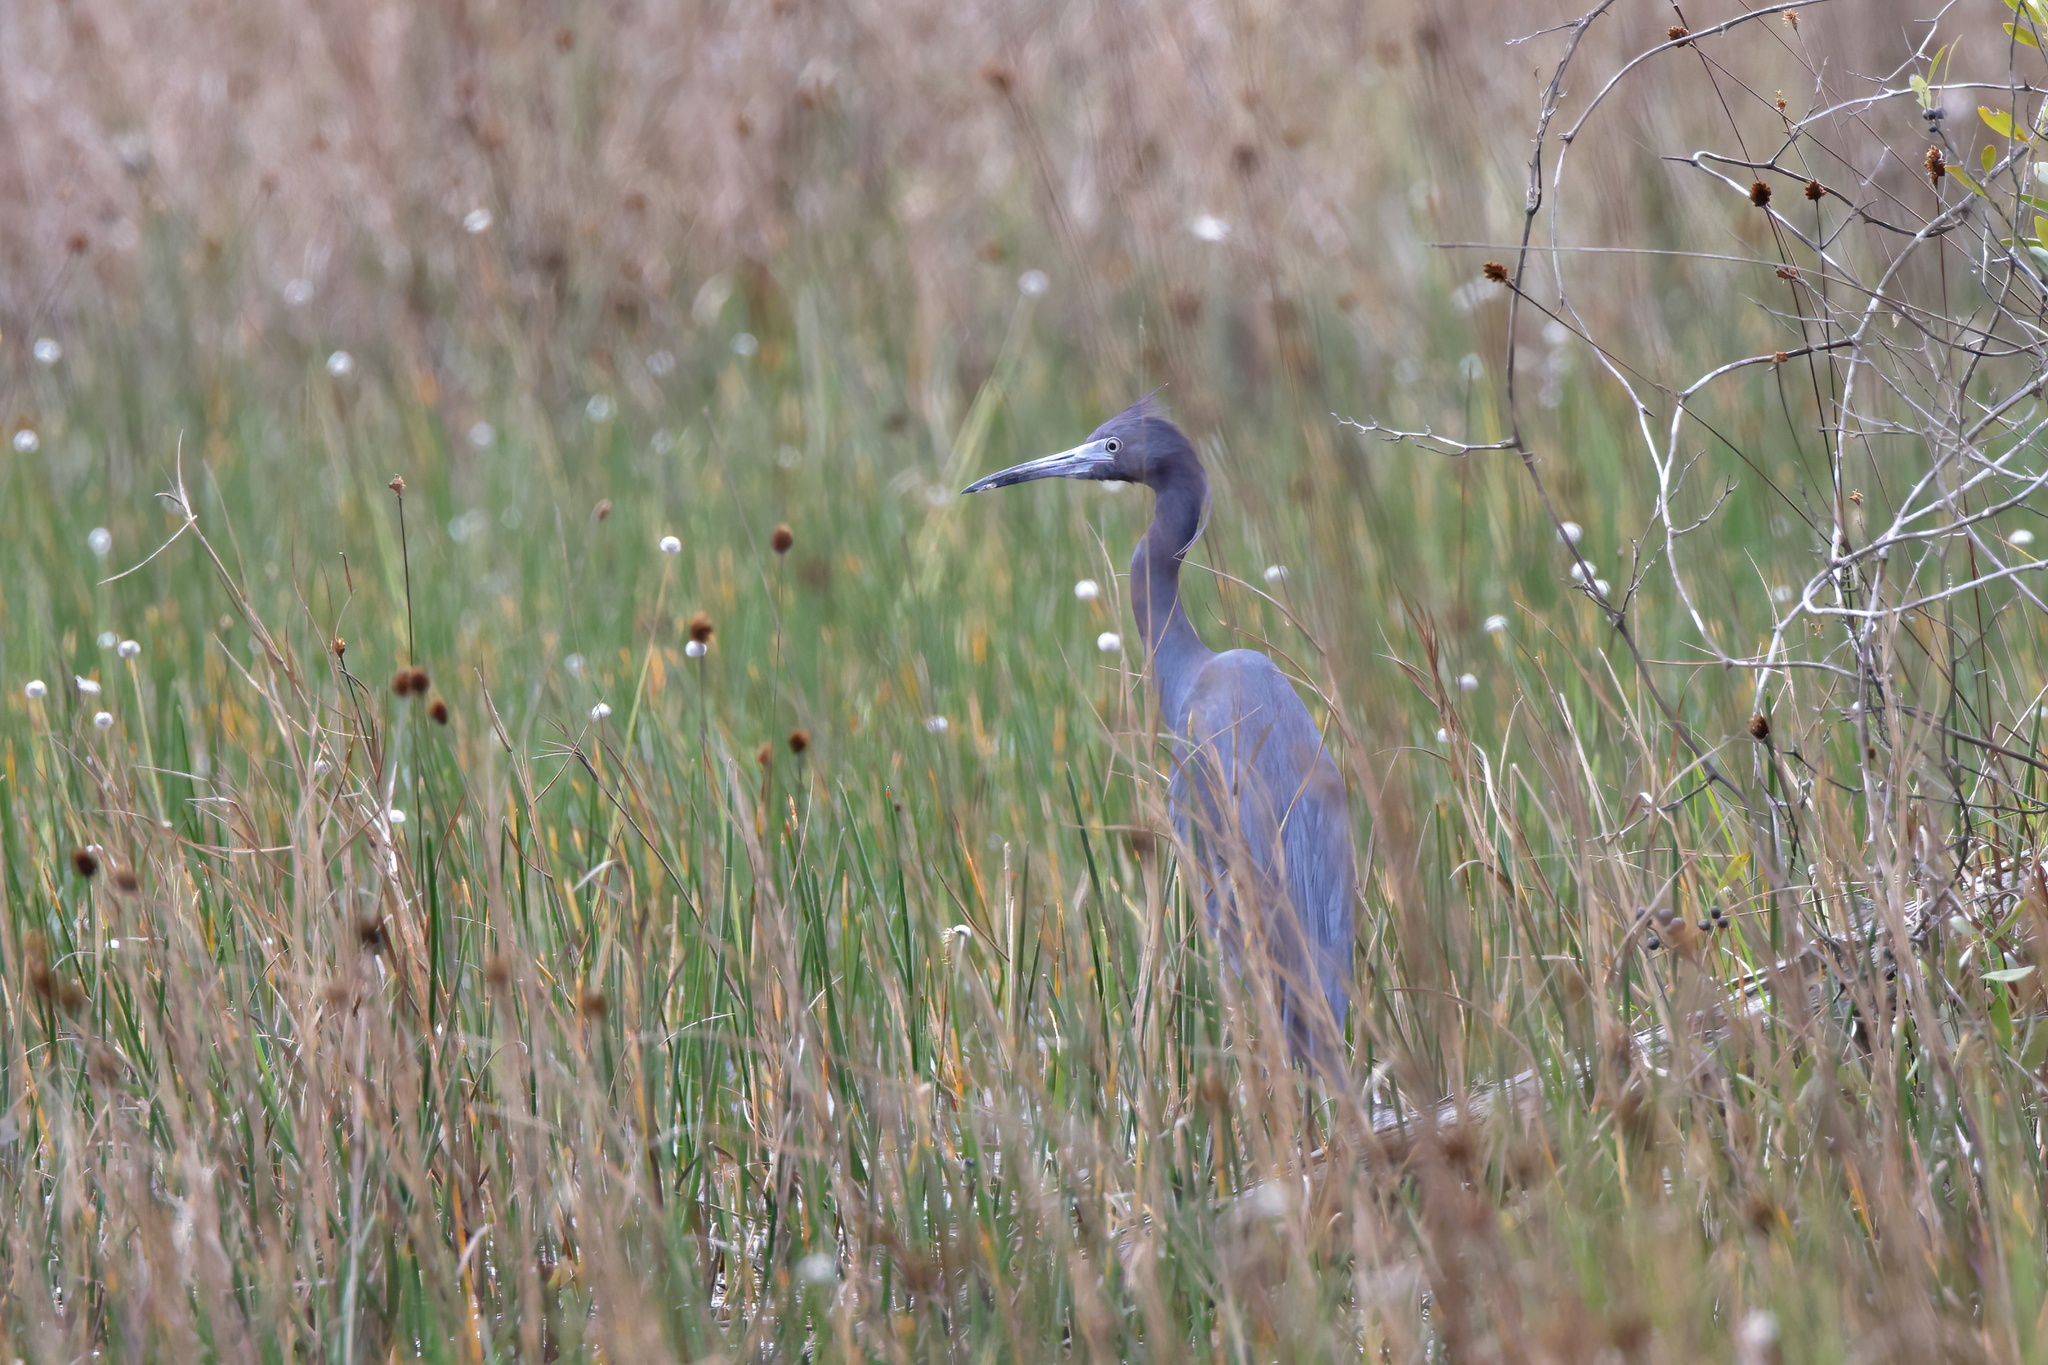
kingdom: Animalia
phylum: Chordata
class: Aves
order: Pelecaniformes
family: Ardeidae
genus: Egretta
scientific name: Egretta caerulea
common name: Little blue heron
